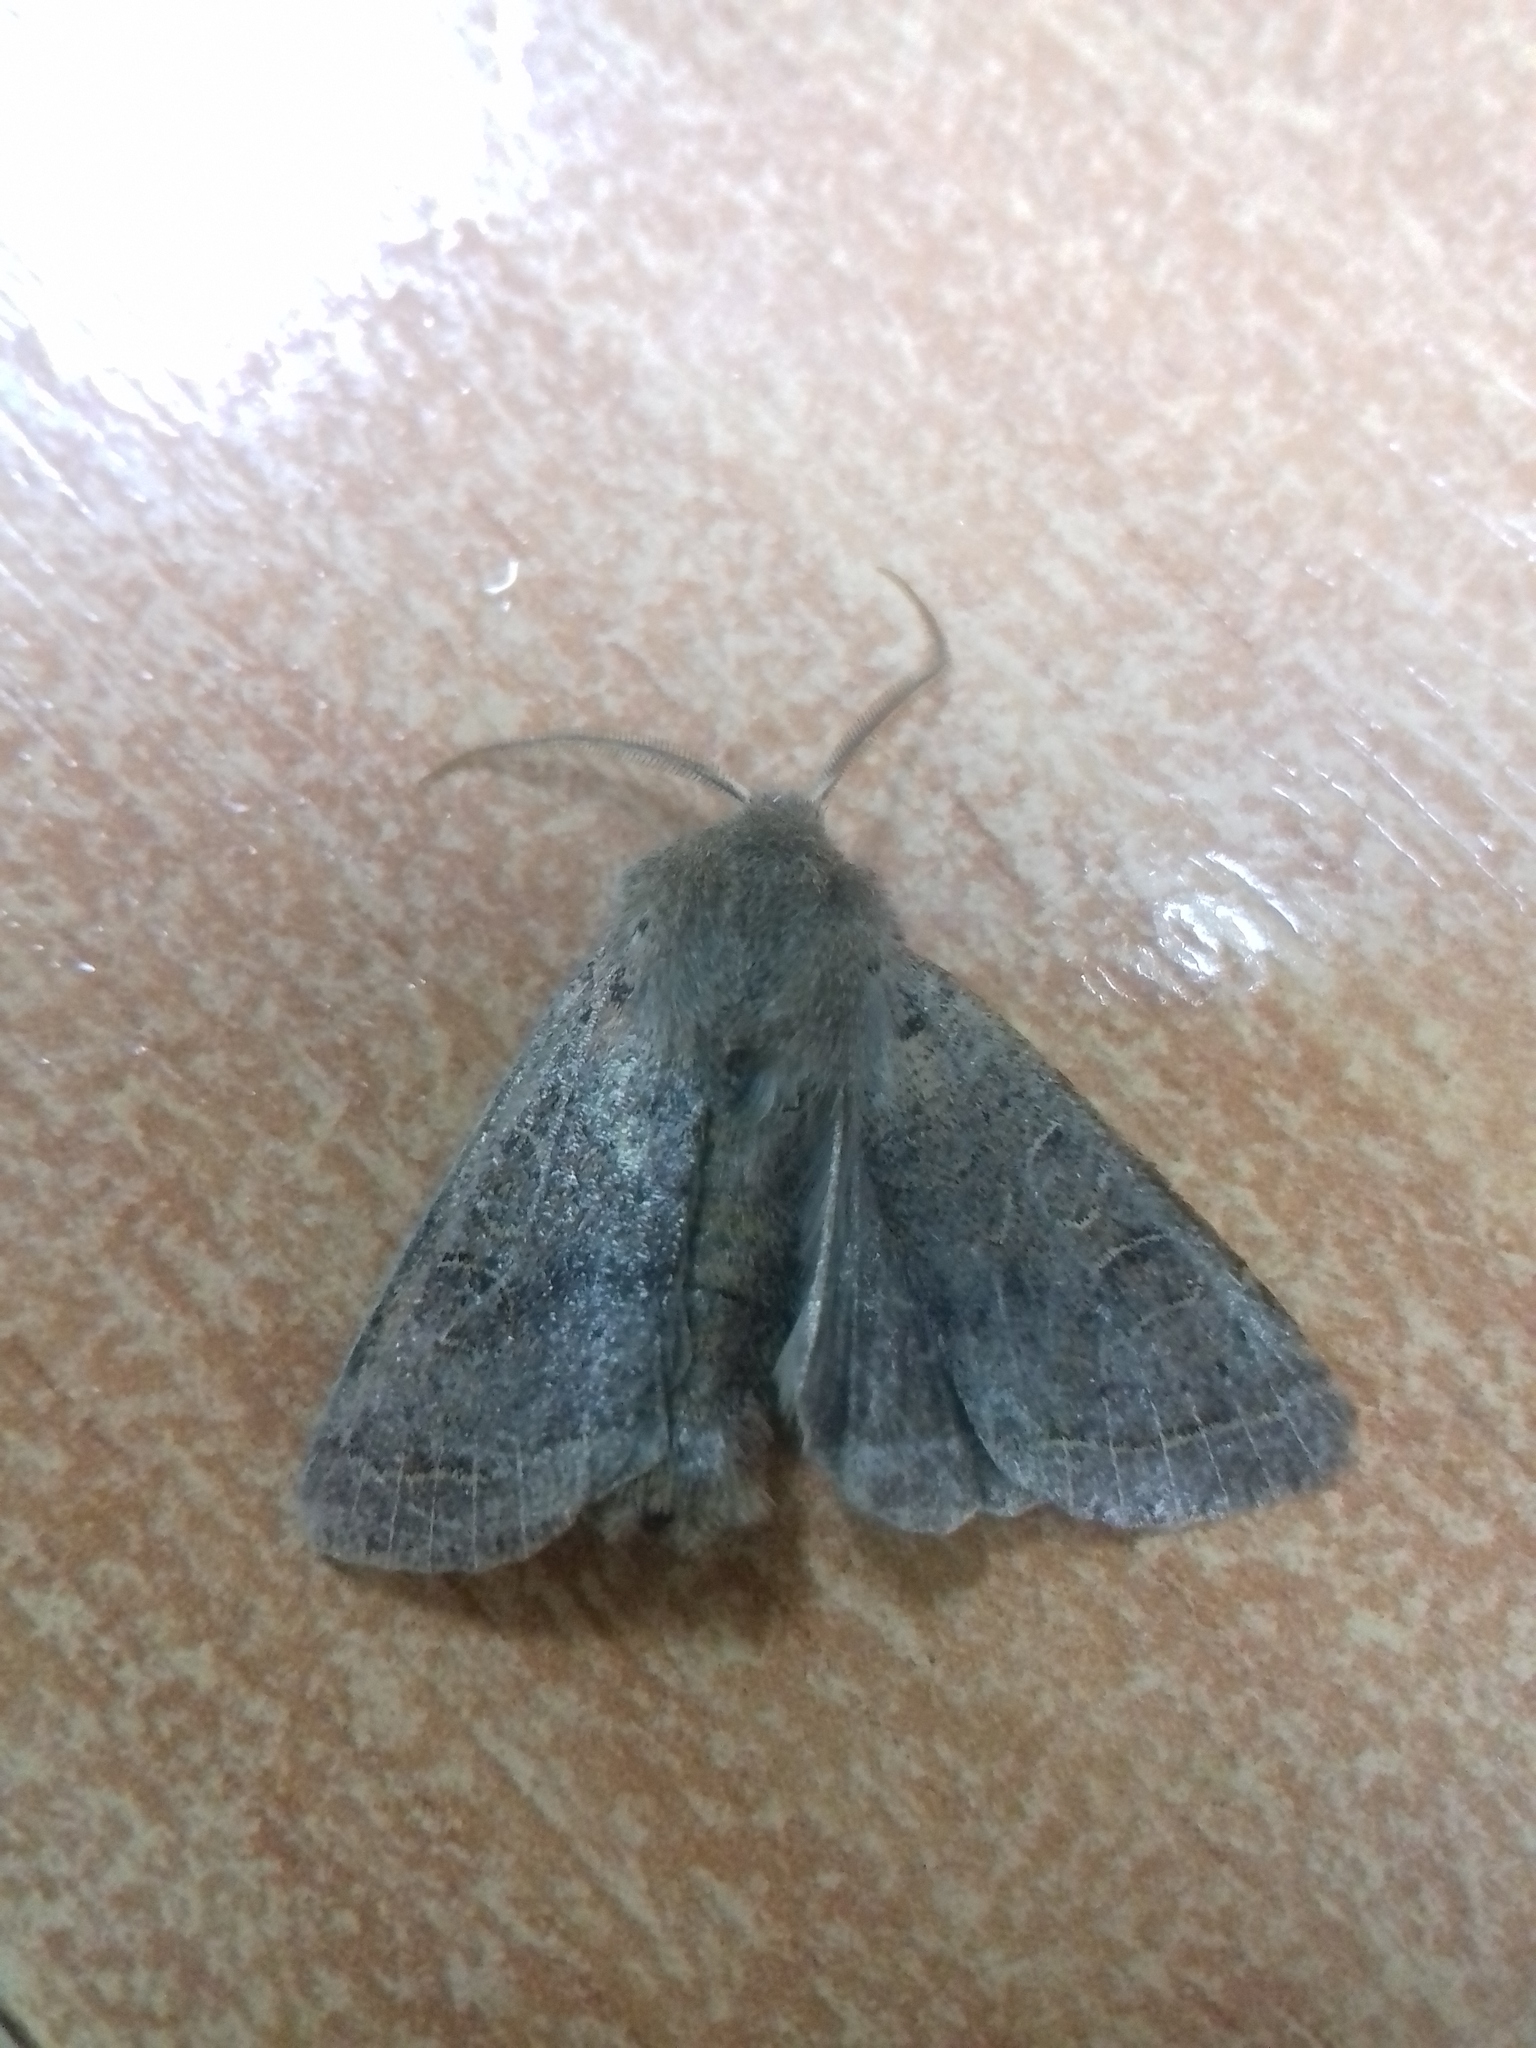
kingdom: Animalia
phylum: Arthropoda
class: Insecta
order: Lepidoptera
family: Noctuidae
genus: Orthosia
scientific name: Orthosia cerasi
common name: Common quaker
